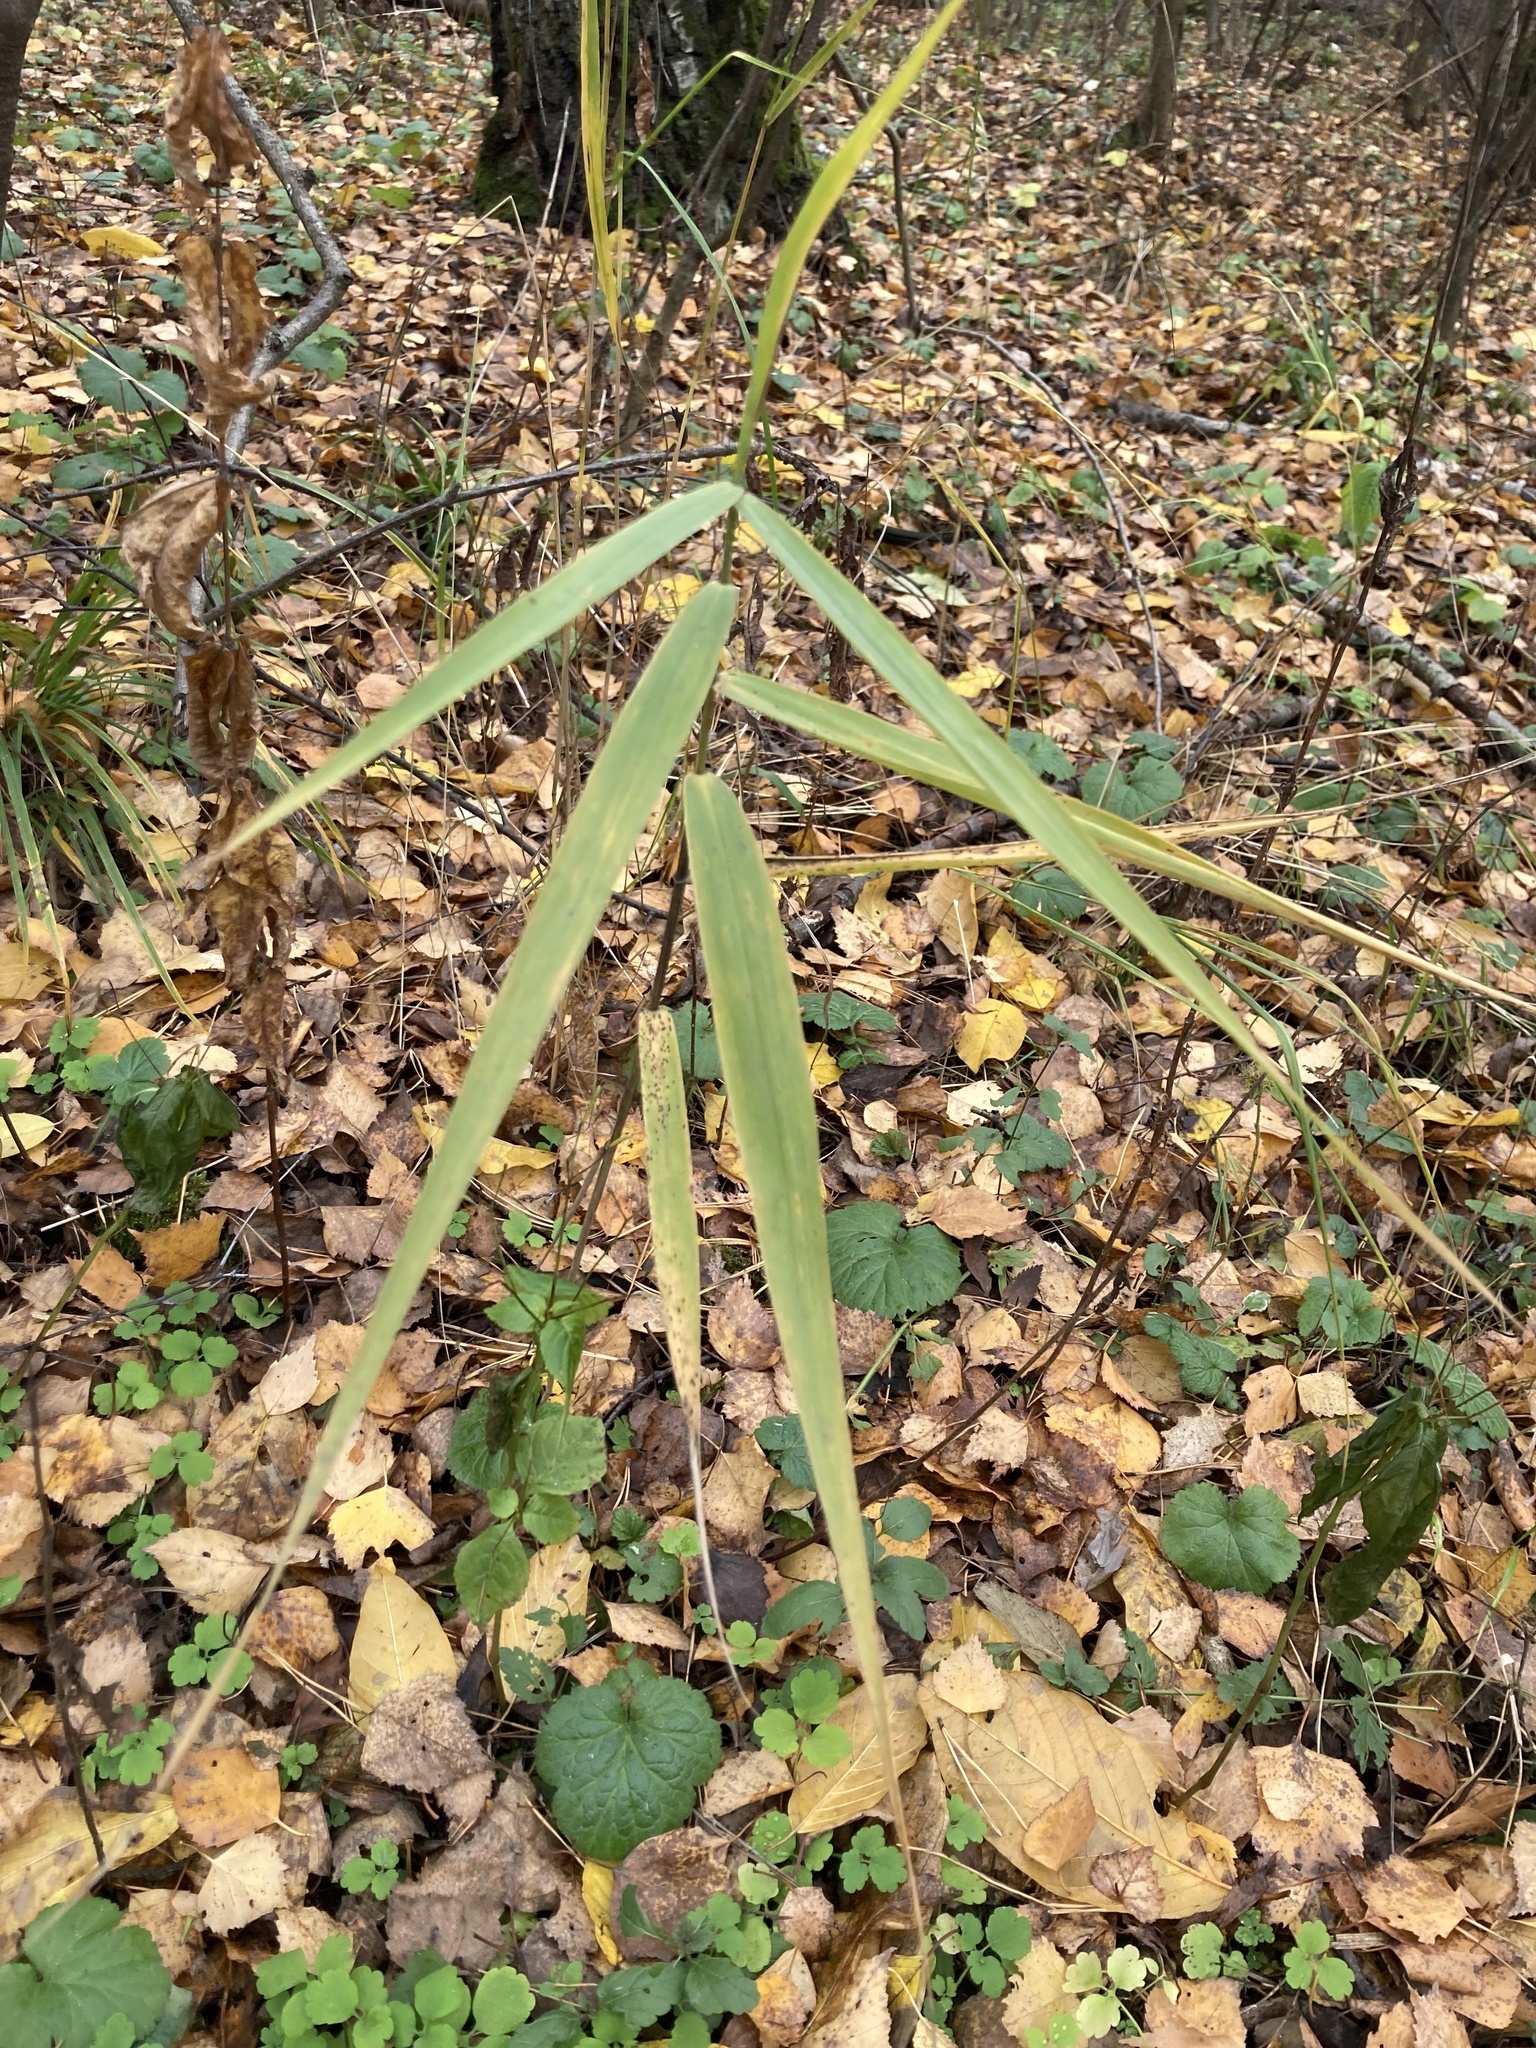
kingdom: Plantae
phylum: Tracheophyta
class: Liliopsida
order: Poales
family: Poaceae
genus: Phragmites
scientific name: Phragmites australis
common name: Common reed
